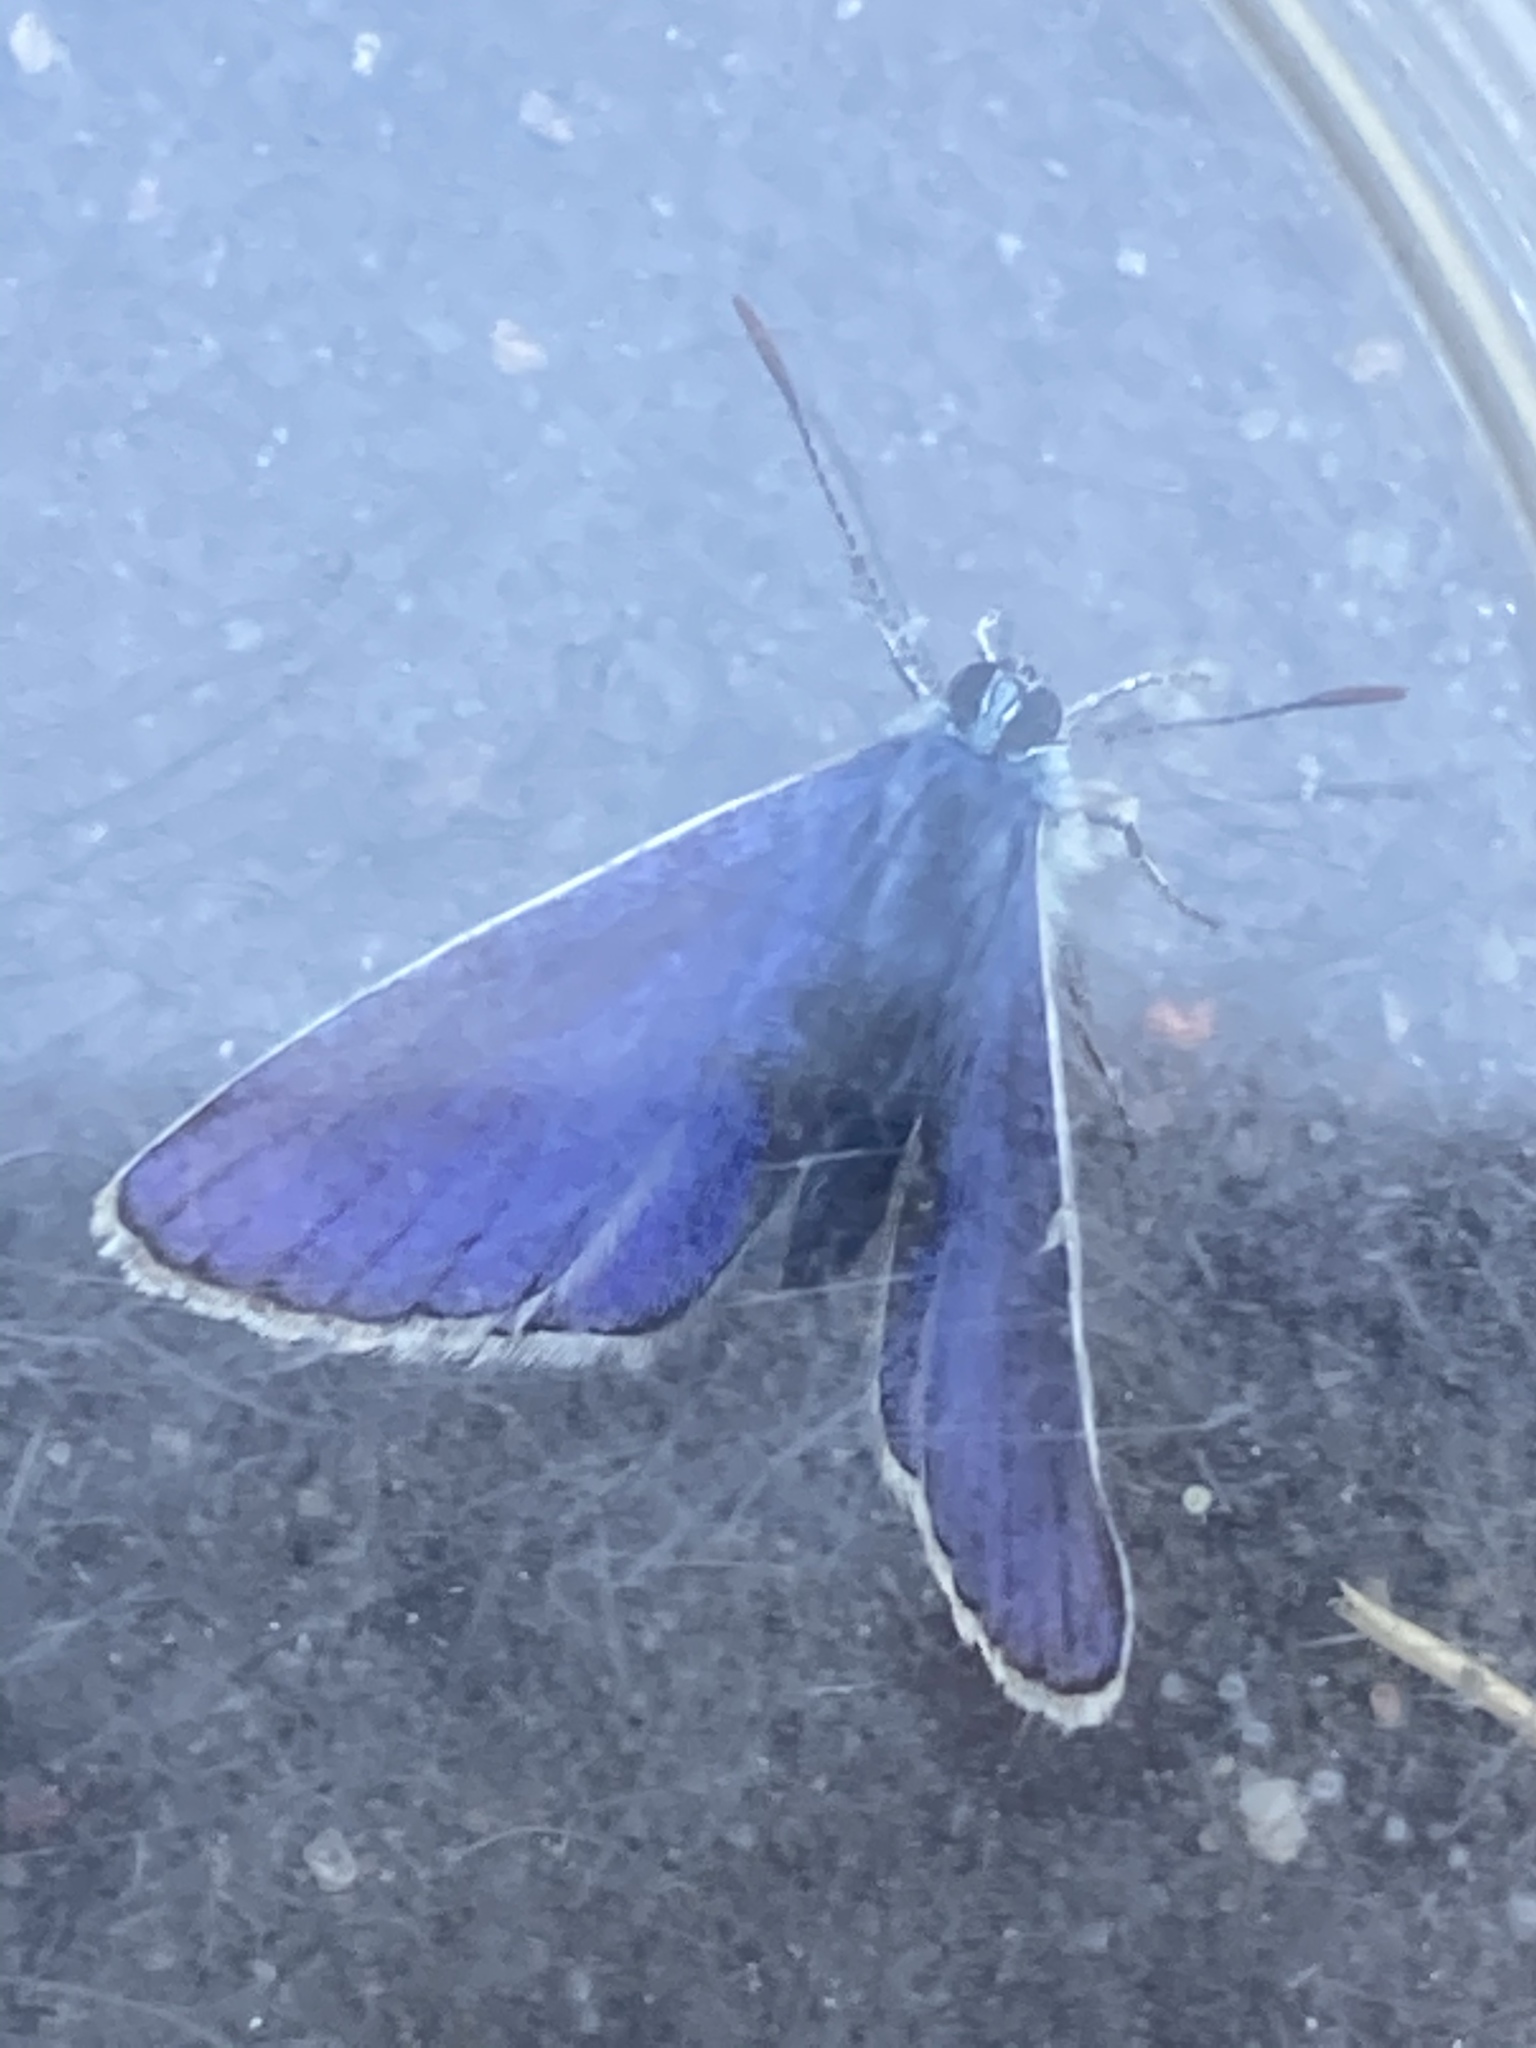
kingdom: Animalia
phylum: Arthropoda
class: Insecta
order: Lepidoptera
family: Lycaenidae
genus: Polyommatus
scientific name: Polyommatus icarus
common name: Common blue
